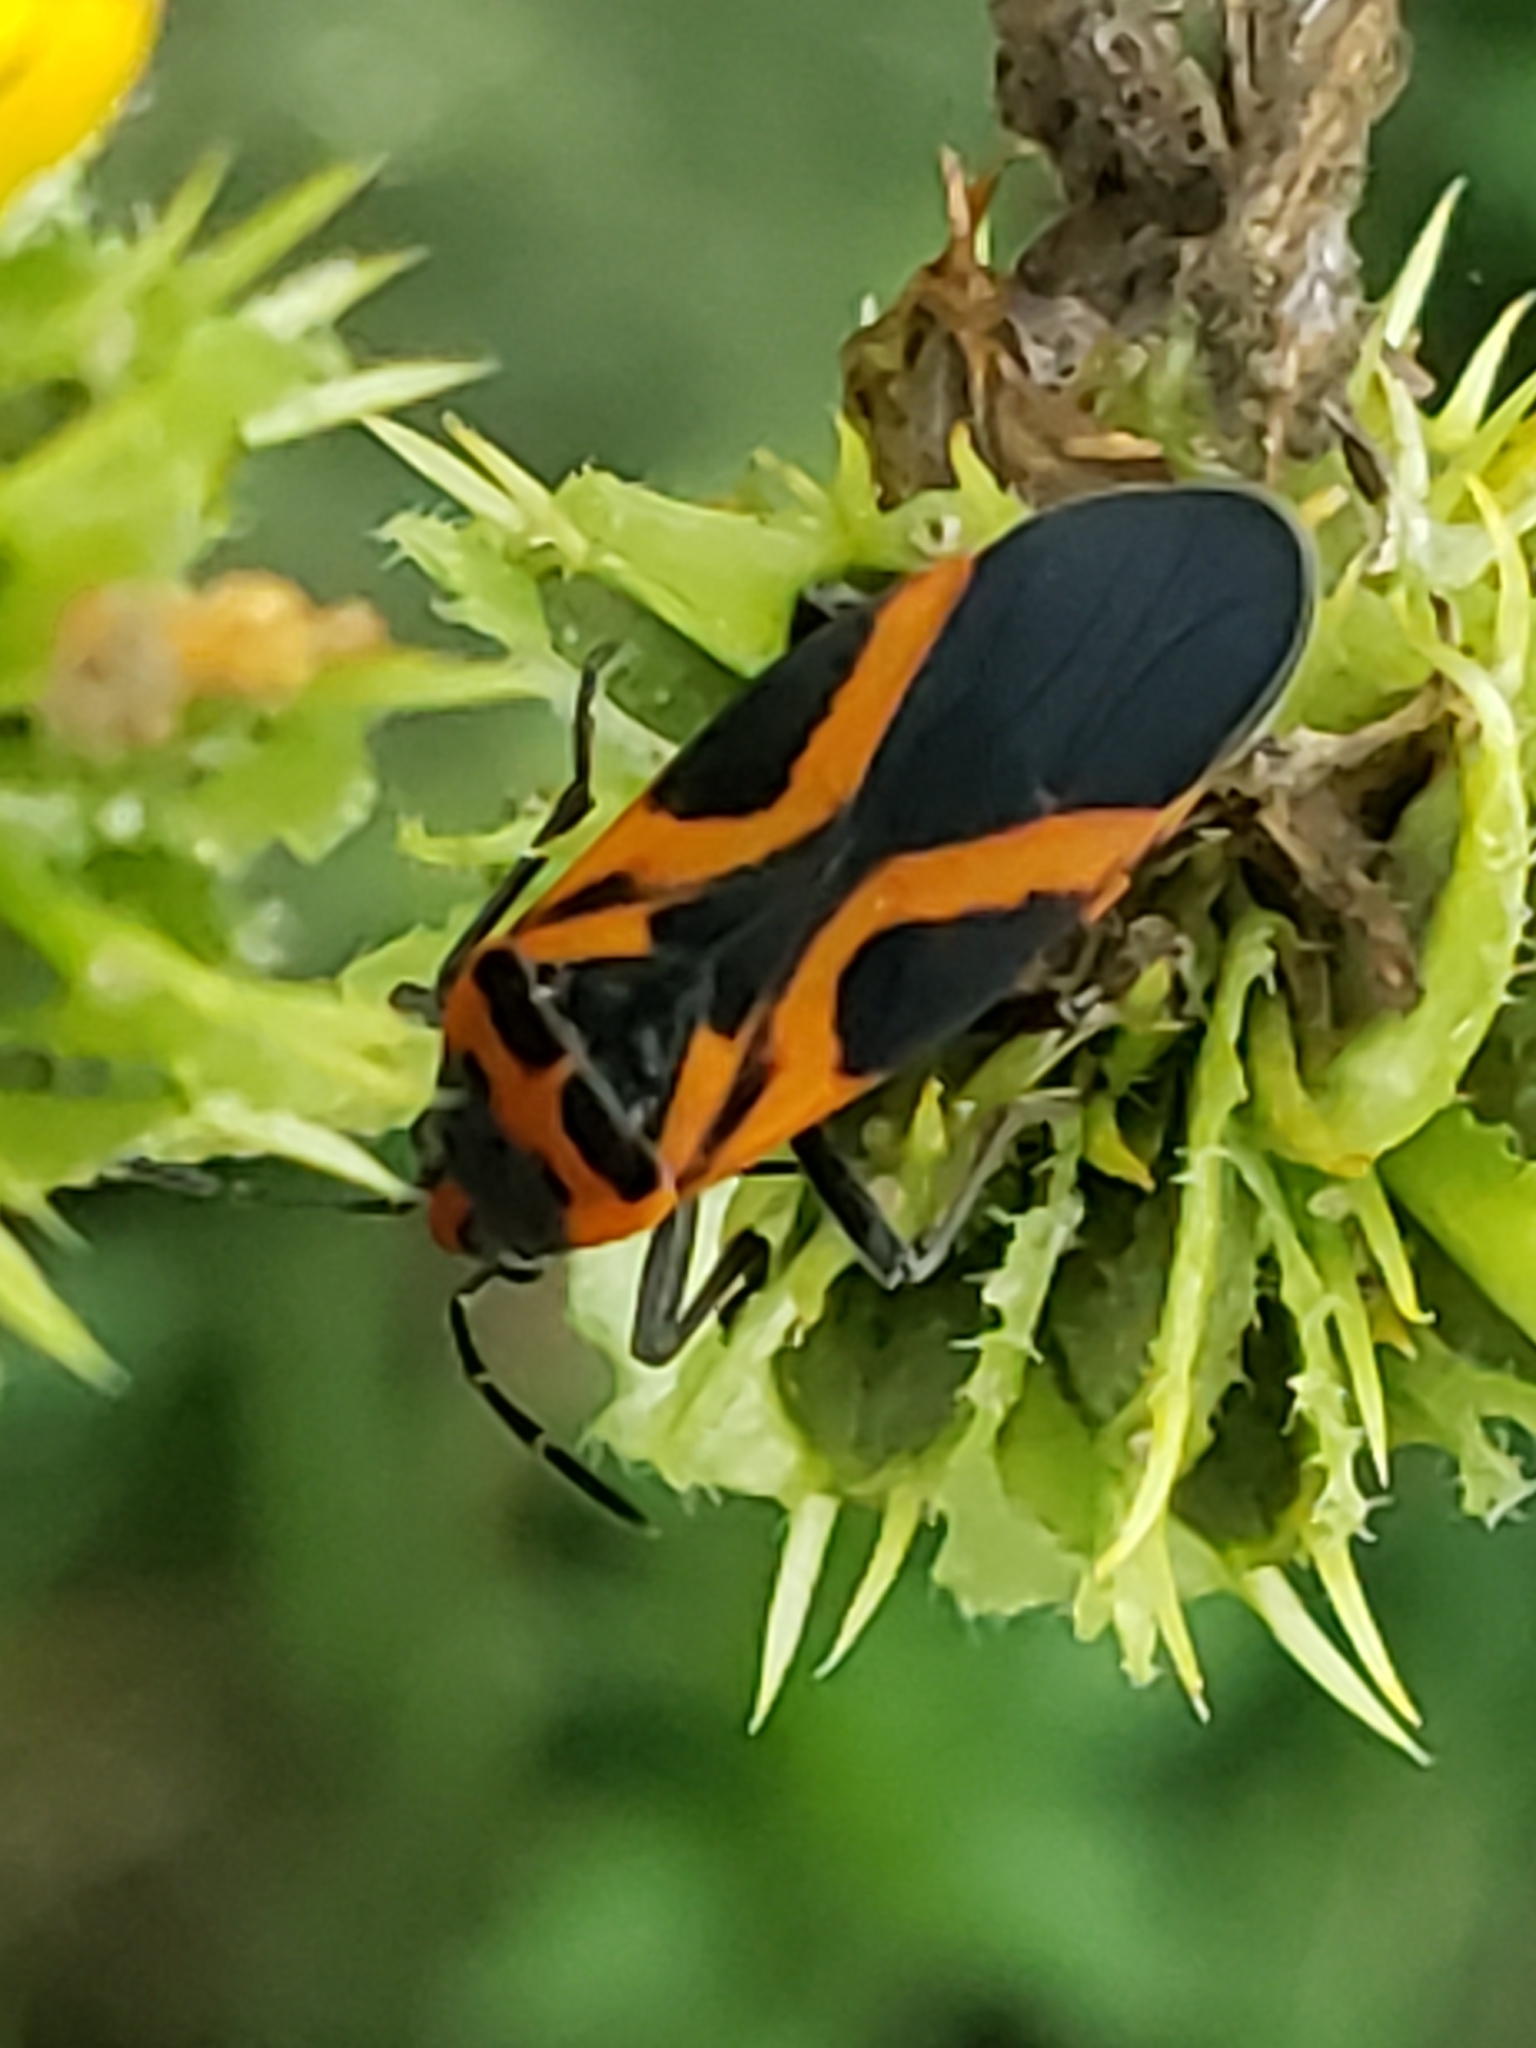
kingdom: Animalia
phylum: Arthropoda
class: Insecta
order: Hemiptera
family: Lygaeidae
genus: Lygaeus
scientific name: Lygaeus turcicus
